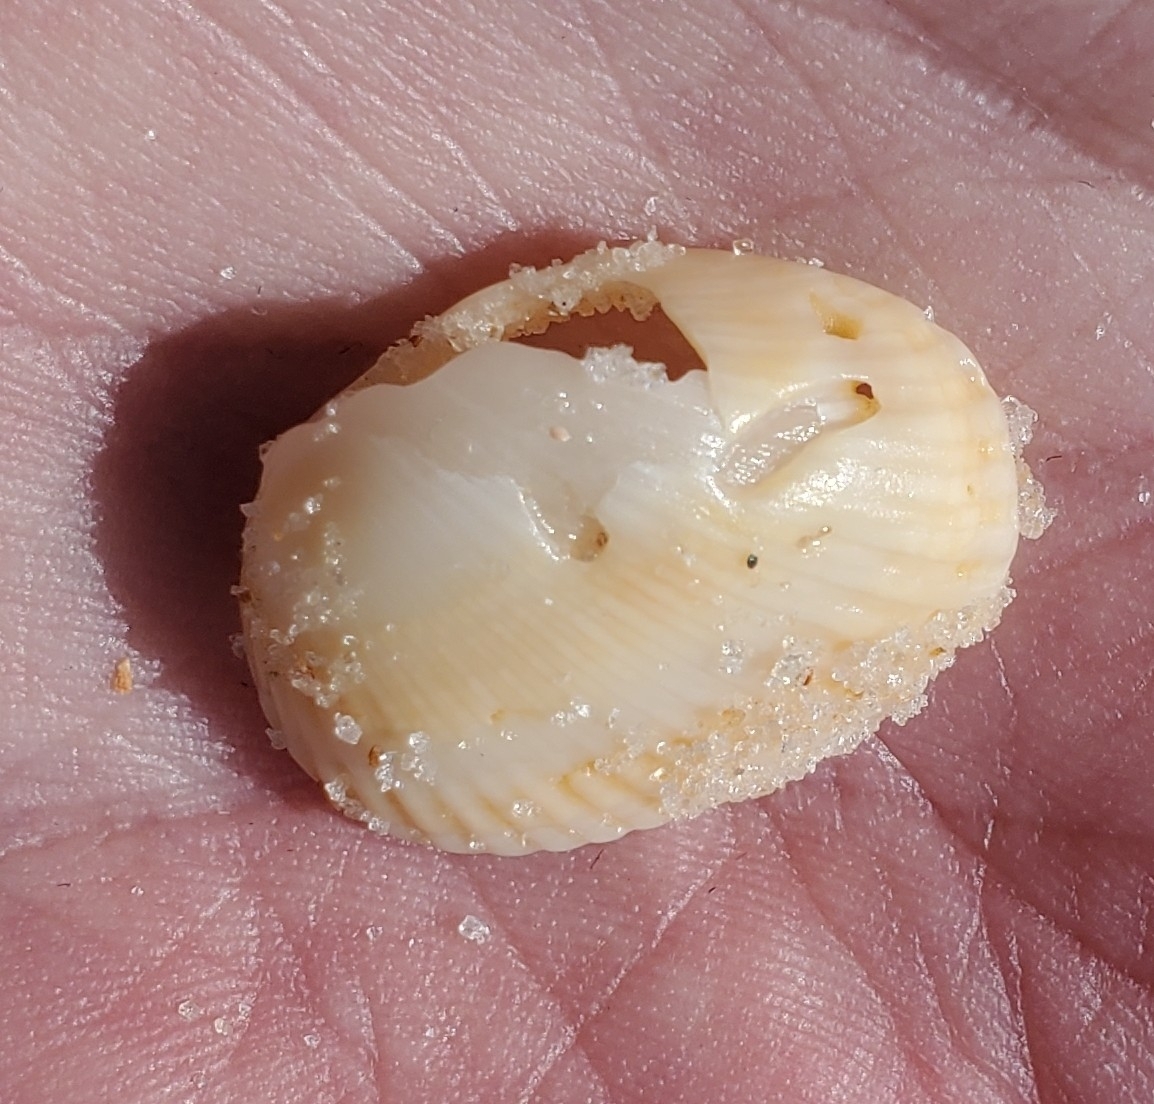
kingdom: Animalia
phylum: Mollusca
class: Bivalvia
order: Arcida
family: Arcidae
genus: Anadara
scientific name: Anadara transversa
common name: Transverse ark
